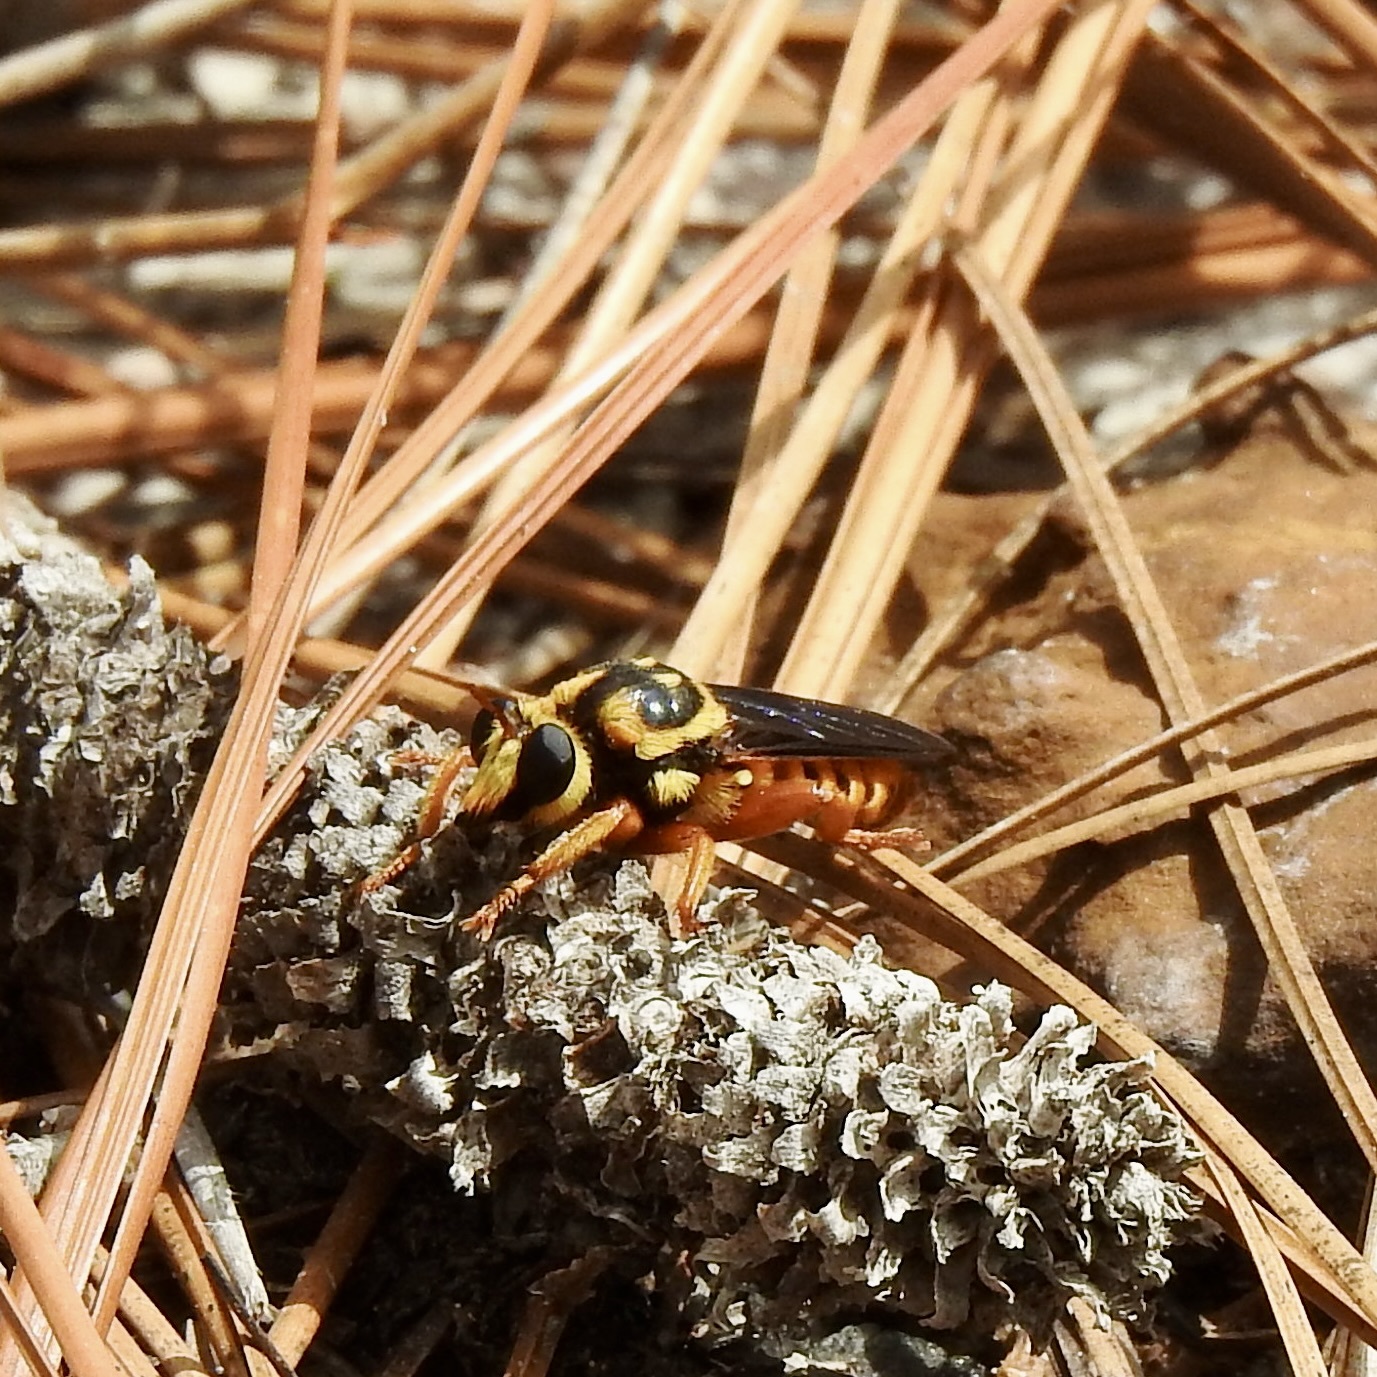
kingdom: Animalia
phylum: Arthropoda
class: Insecta
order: Diptera
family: Asilidae
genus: Laphria
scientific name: Laphria saffrana
